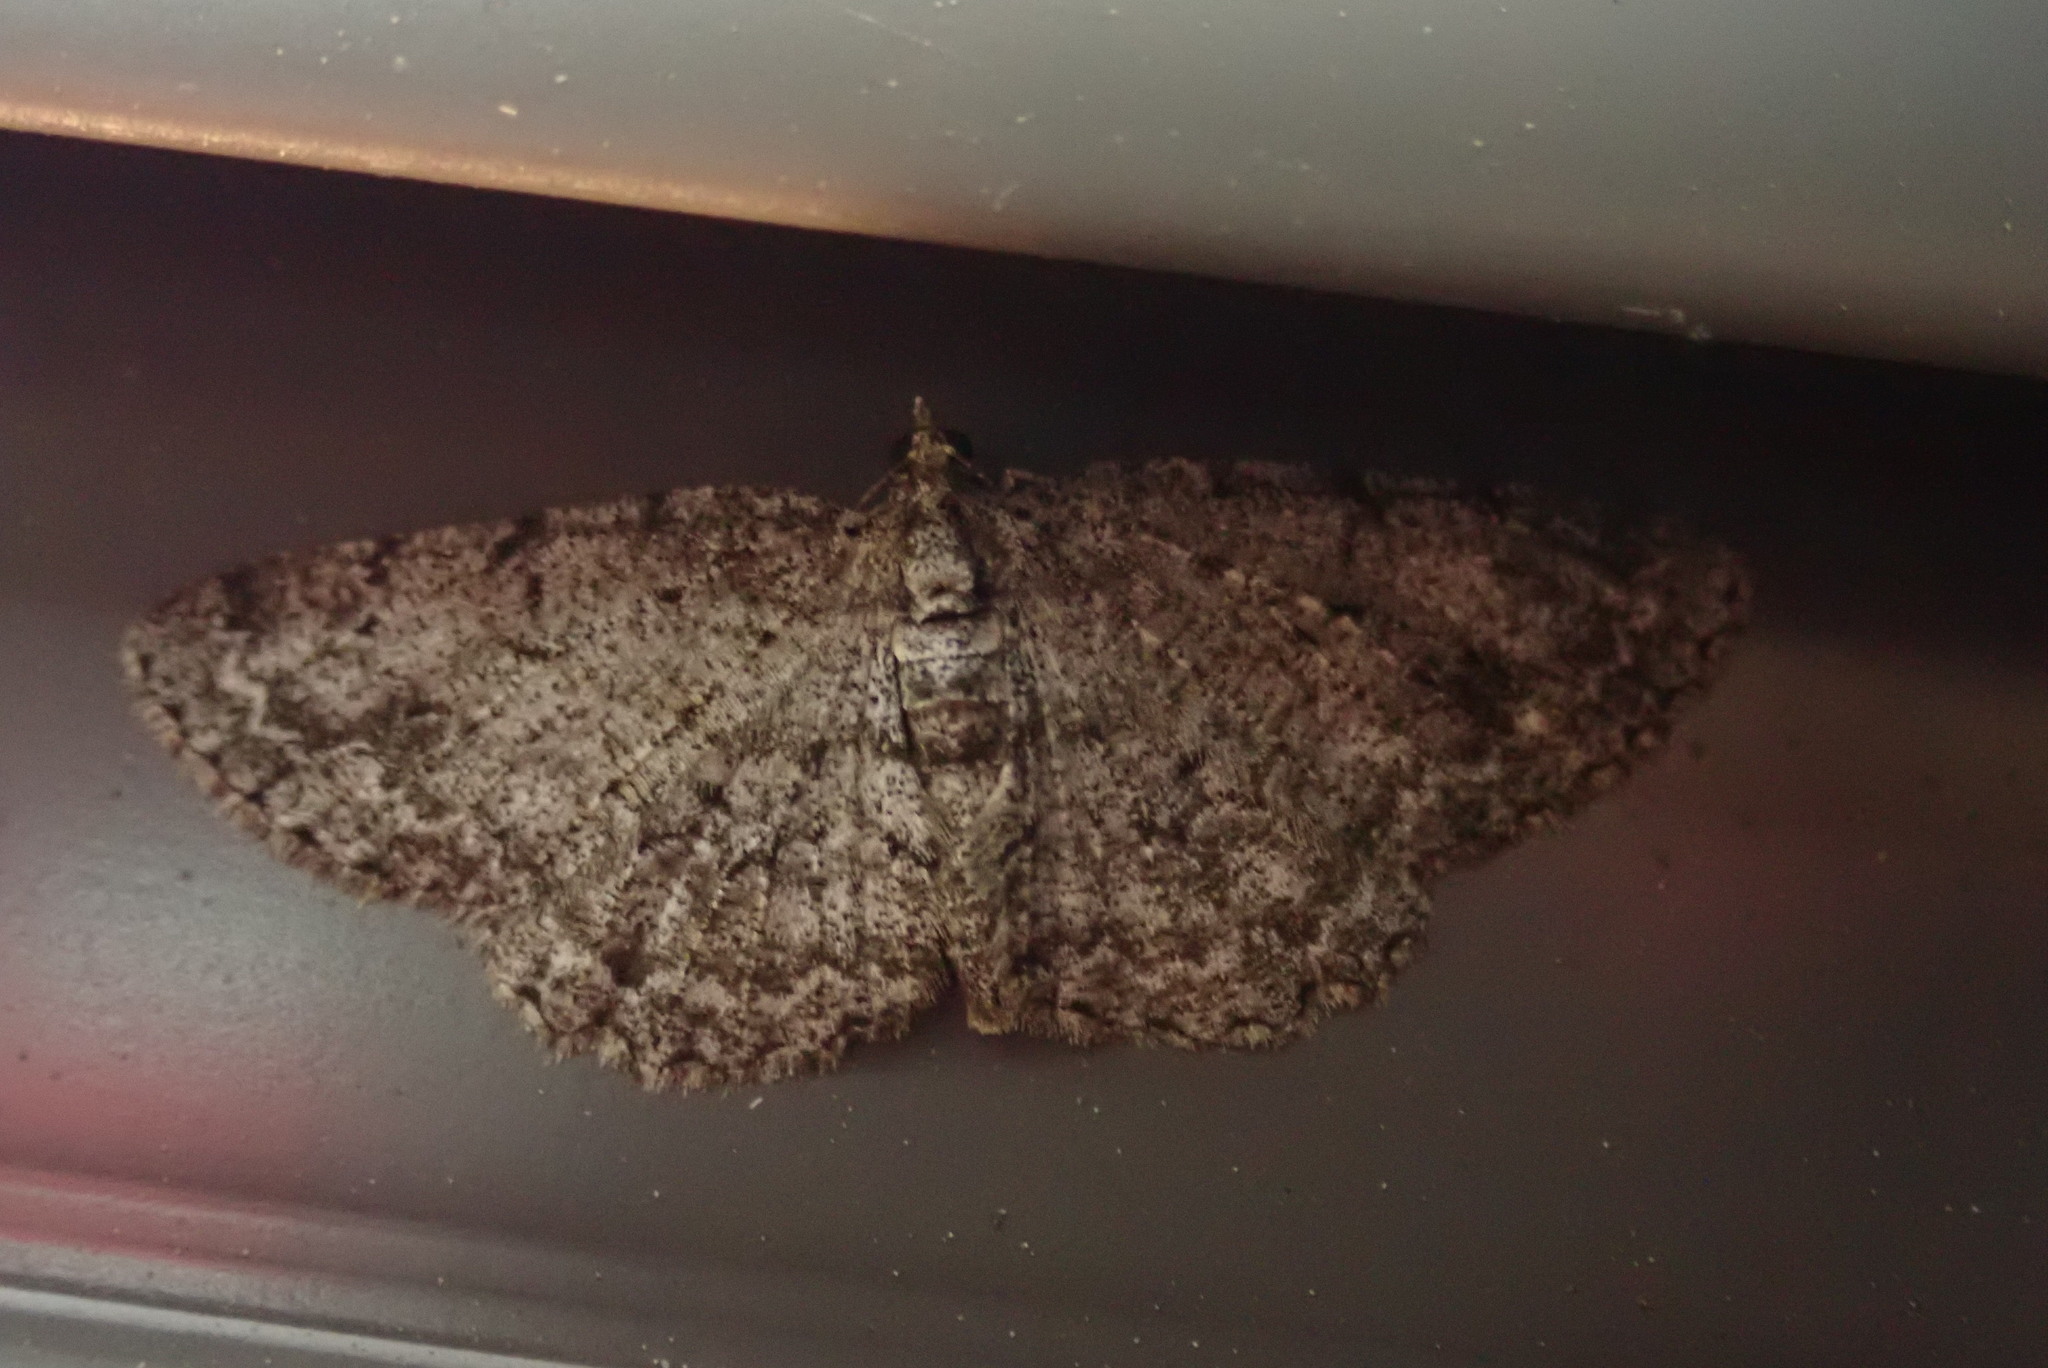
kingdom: Animalia
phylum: Arthropoda
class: Insecta
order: Lepidoptera
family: Geometridae
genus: Protoboarmia
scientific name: Protoboarmia porcelaria
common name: Porcelain gray
